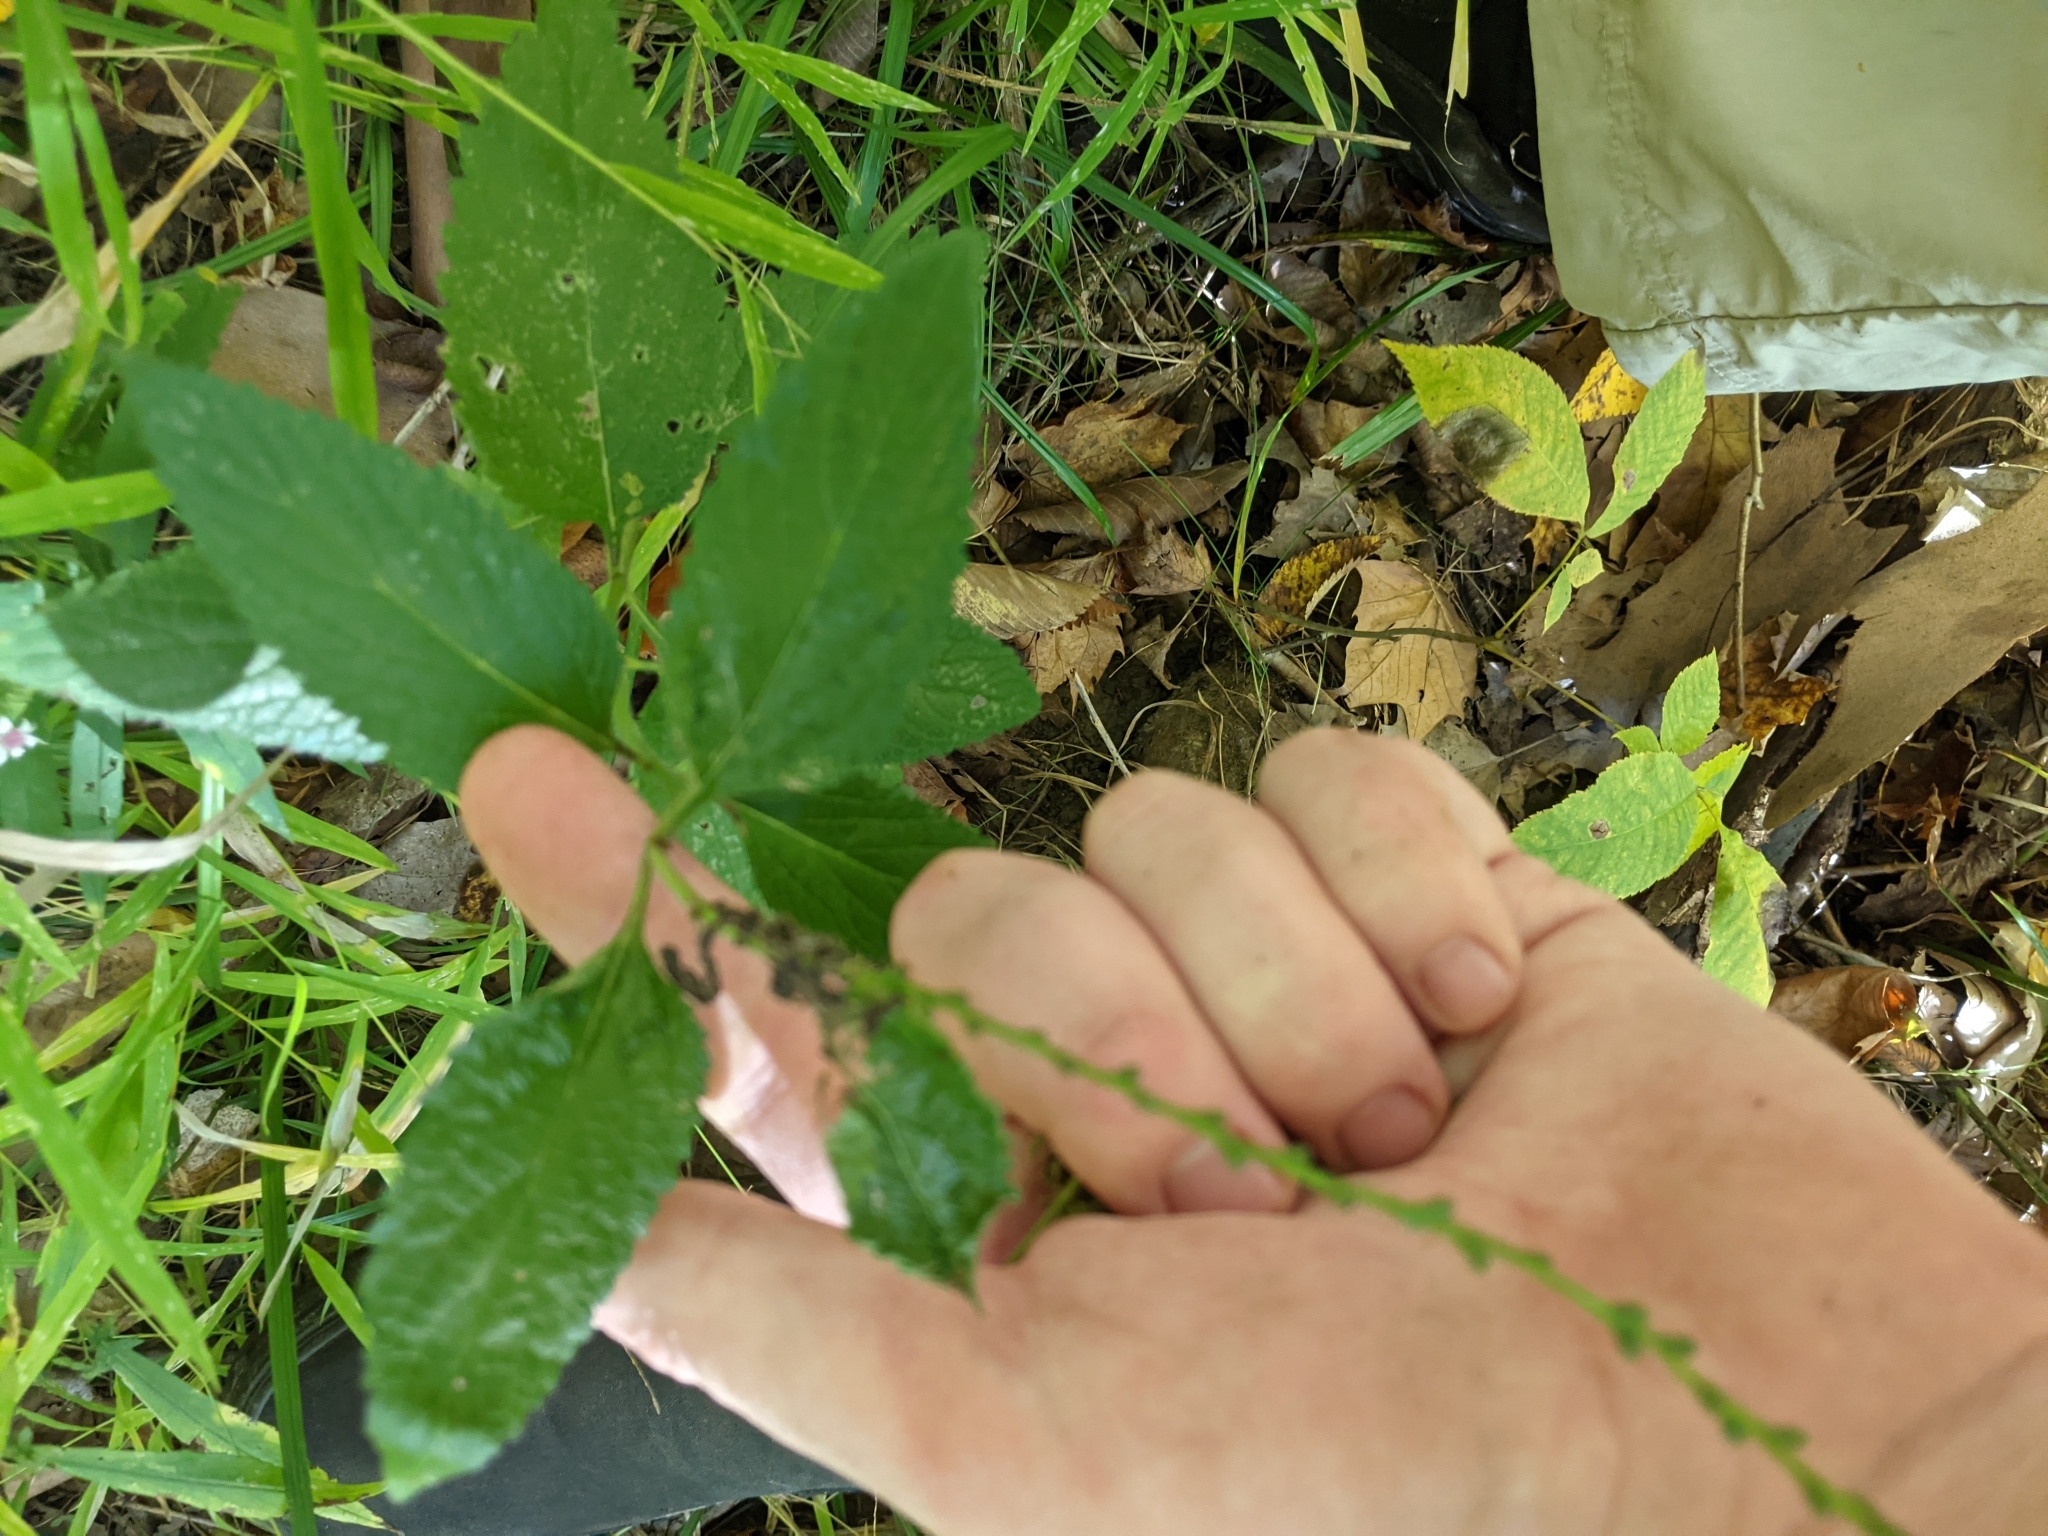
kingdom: Plantae
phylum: Tracheophyta
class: Magnoliopsida
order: Lamiales
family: Verbenaceae
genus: Verbena
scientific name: Verbena urticifolia
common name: Nettle-leaved vervain
